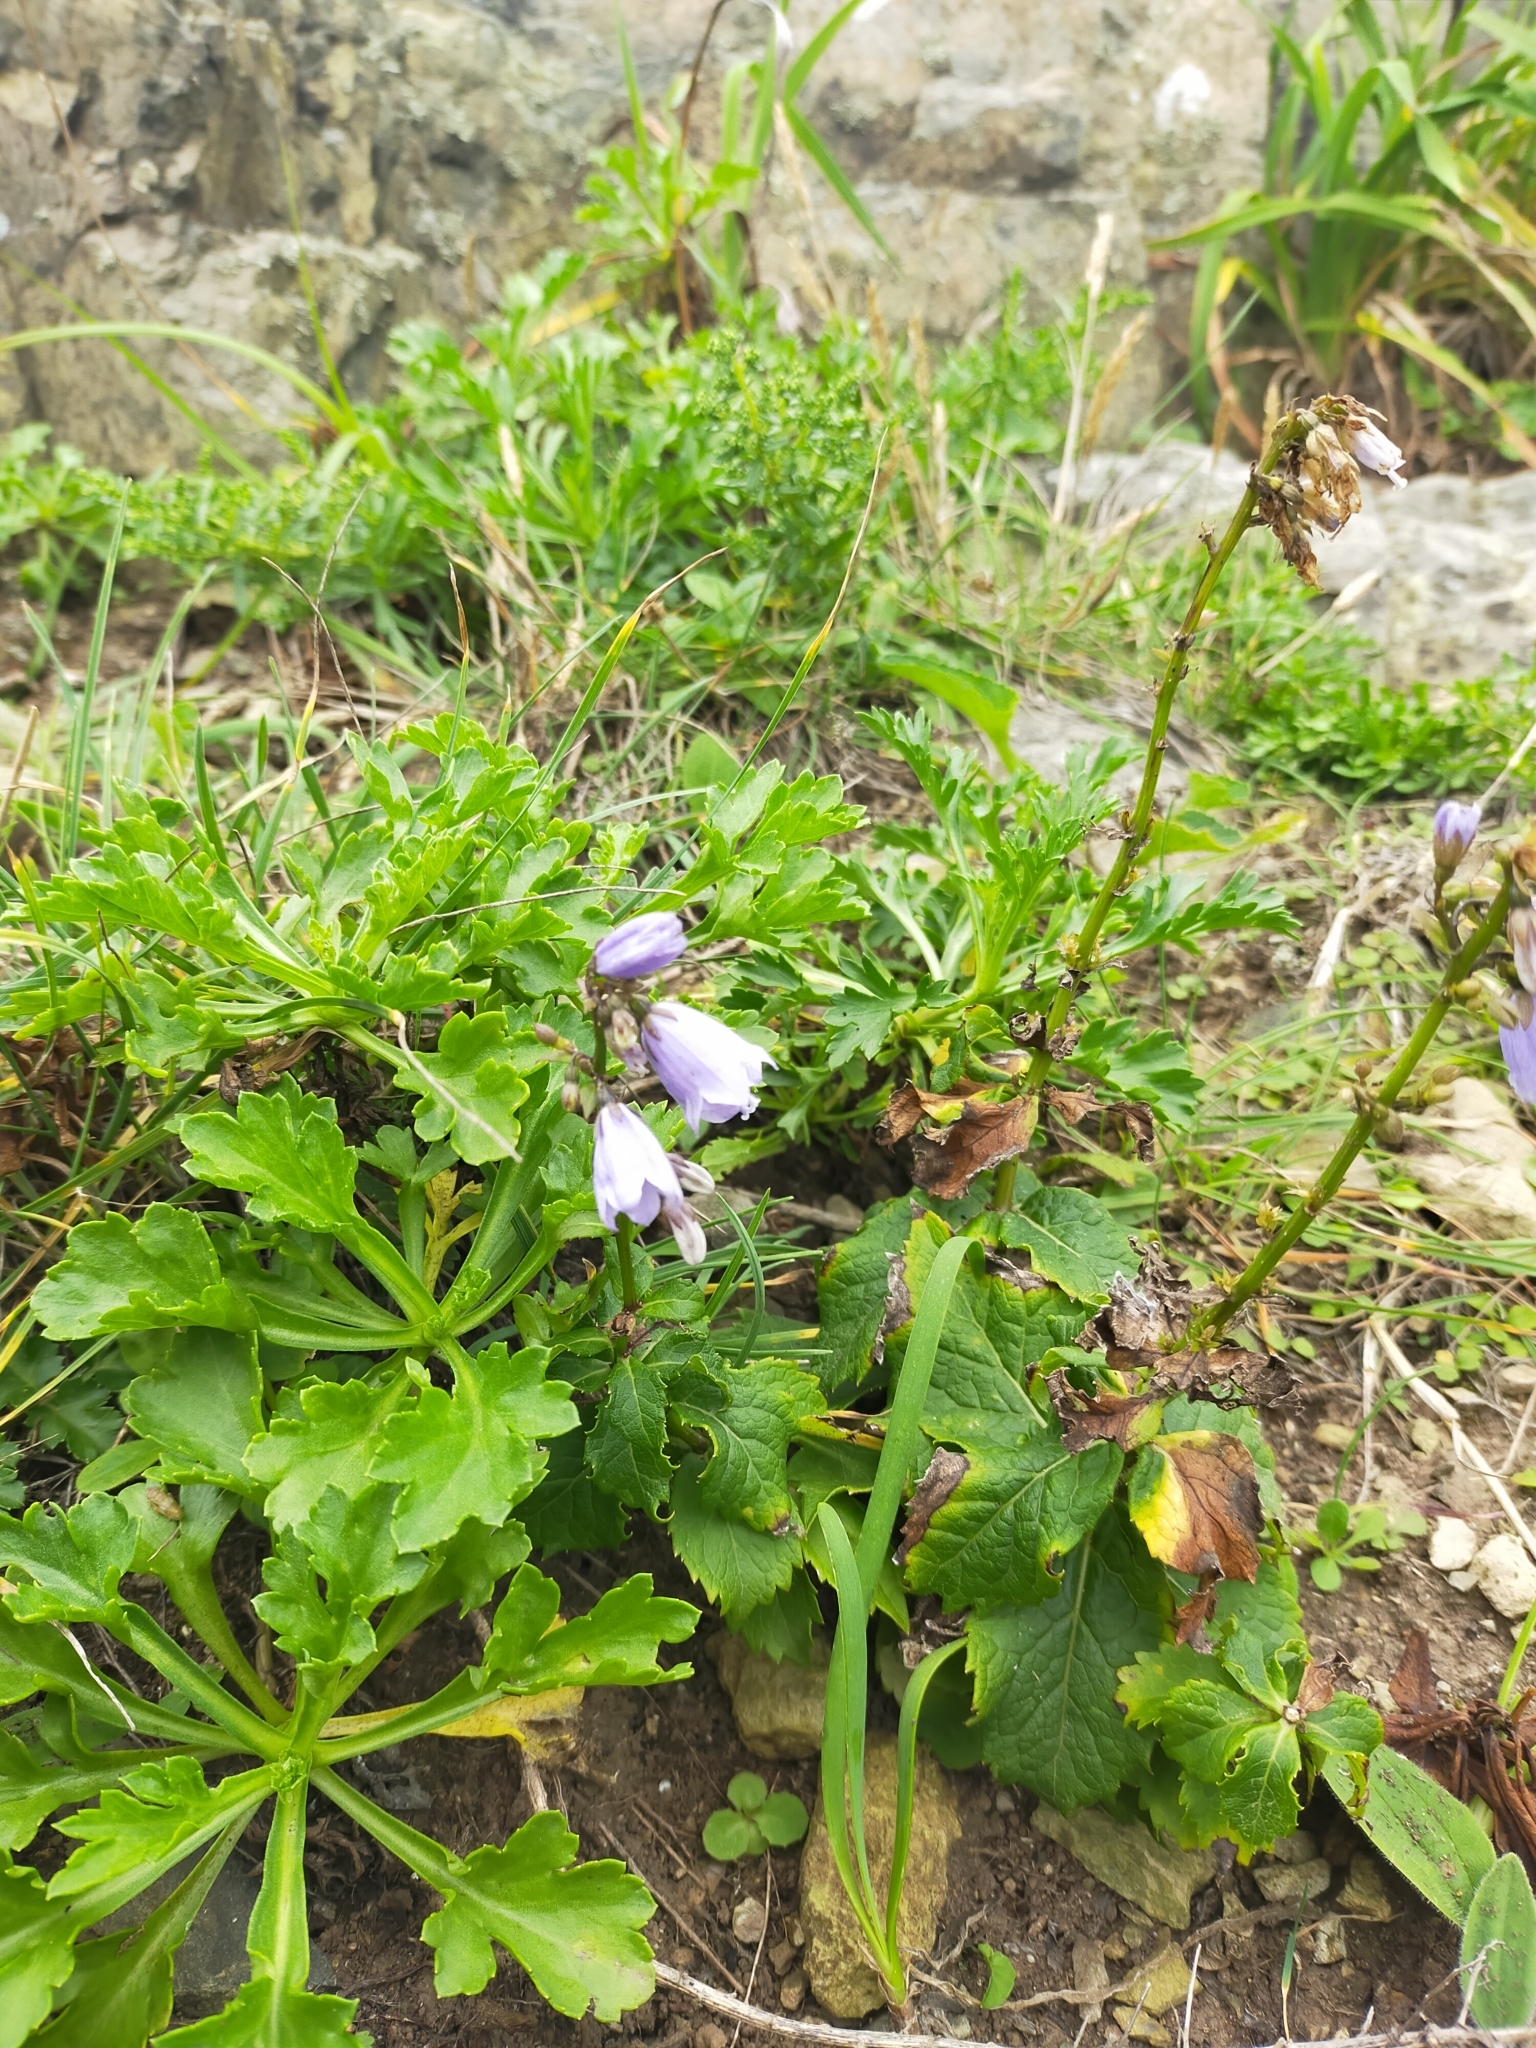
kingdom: Plantae
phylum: Tracheophyta
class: Magnoliopsida
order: Asterales
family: Campanulaceae
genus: Adenophora
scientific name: Adenophora pereskiifolia
